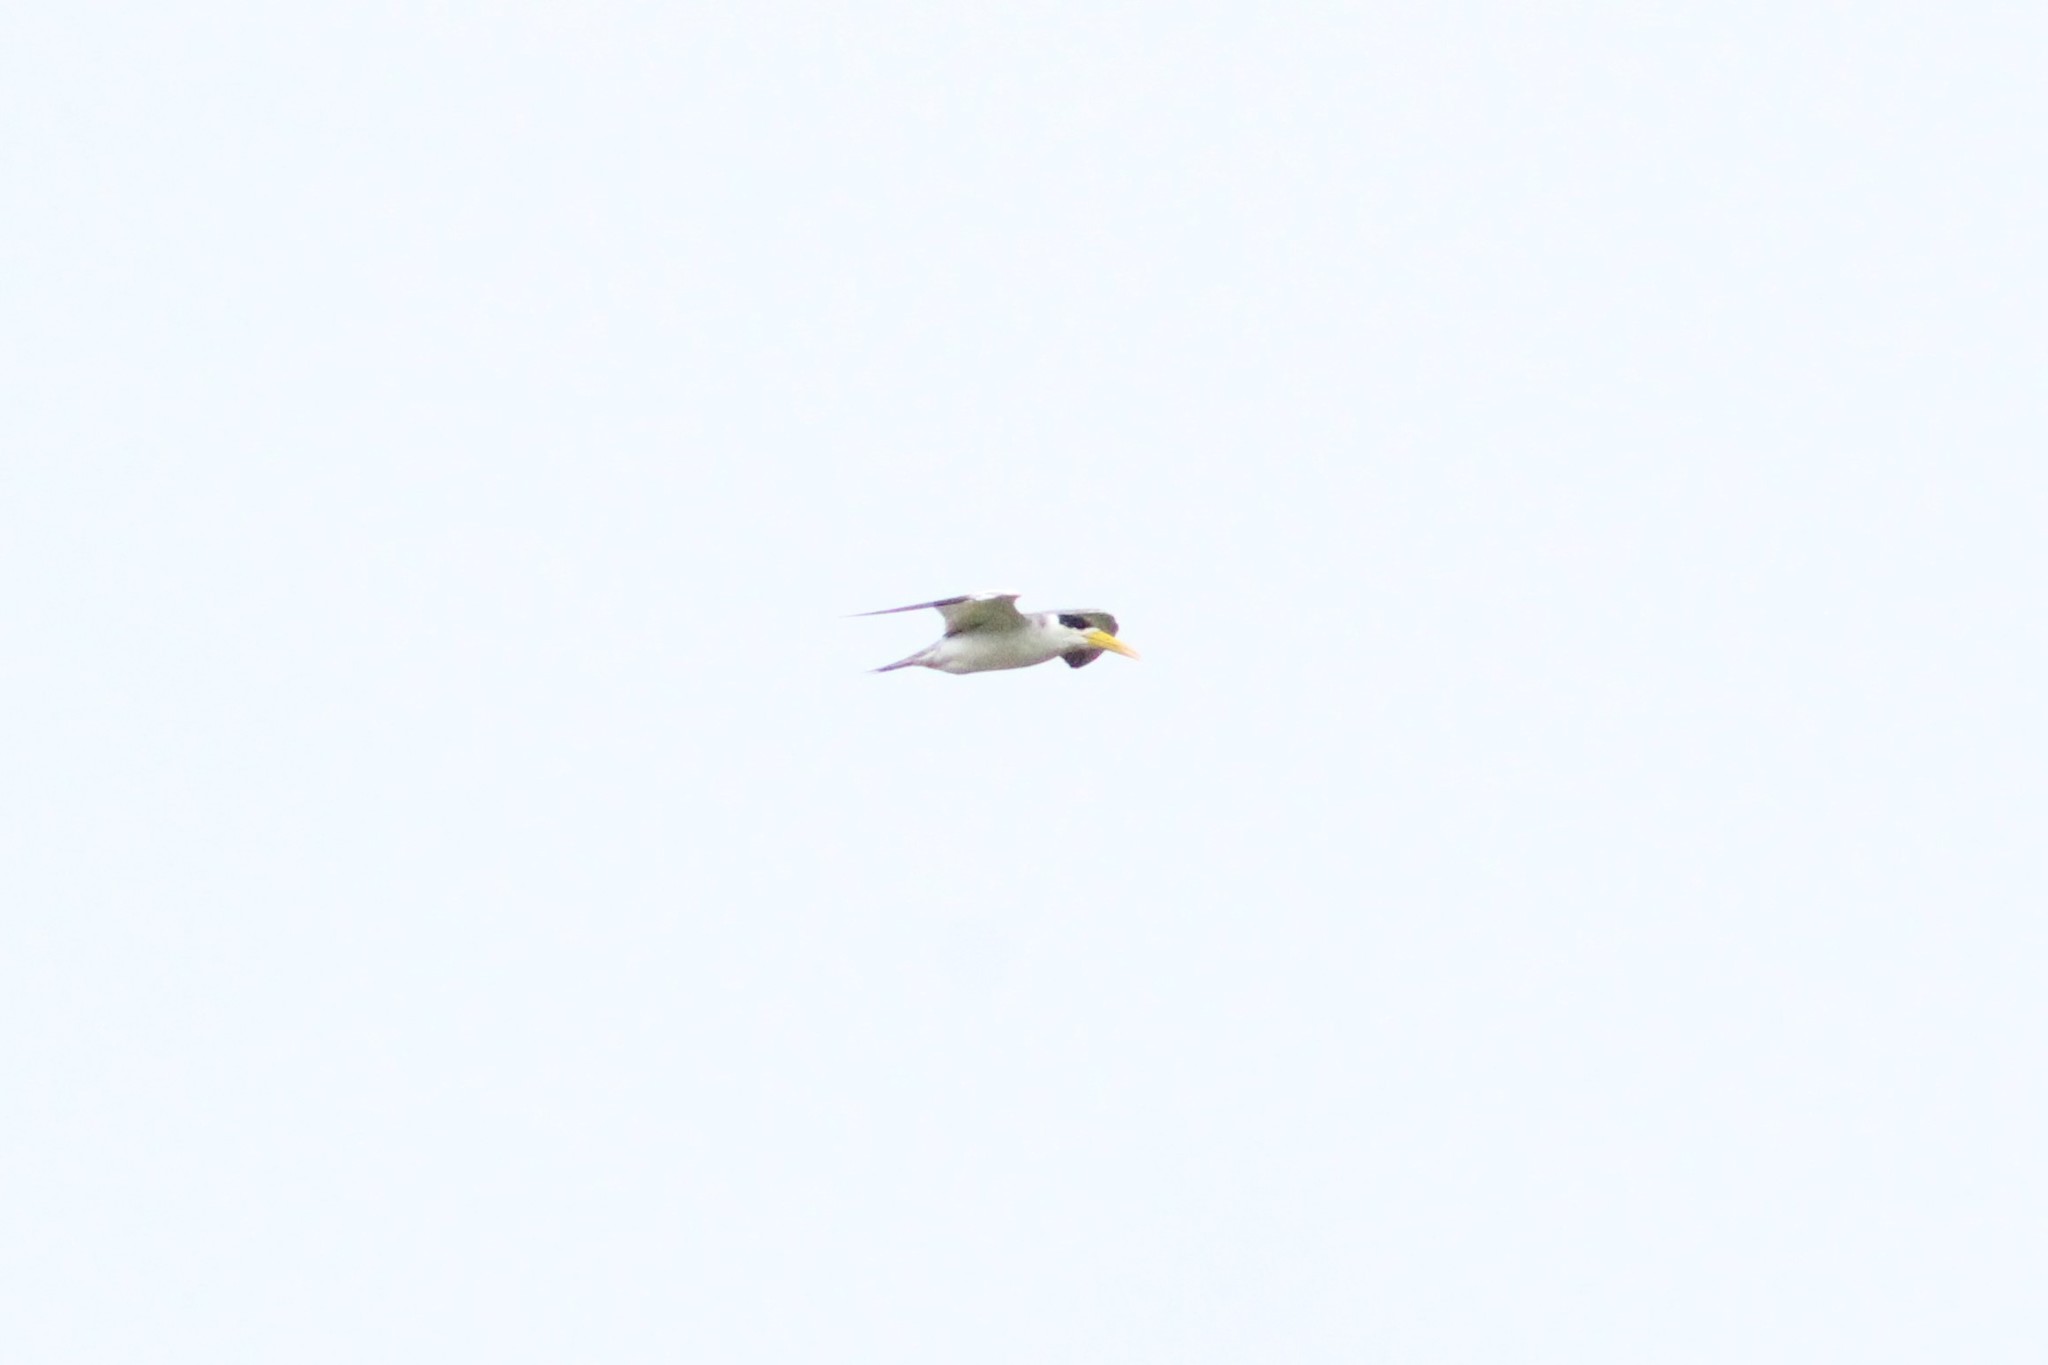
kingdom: Animalia
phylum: Chordata
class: Aves
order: Charadriiformes
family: Laridae
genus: Phaetusa
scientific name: Phaetusa simplex
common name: Large-billed tern
